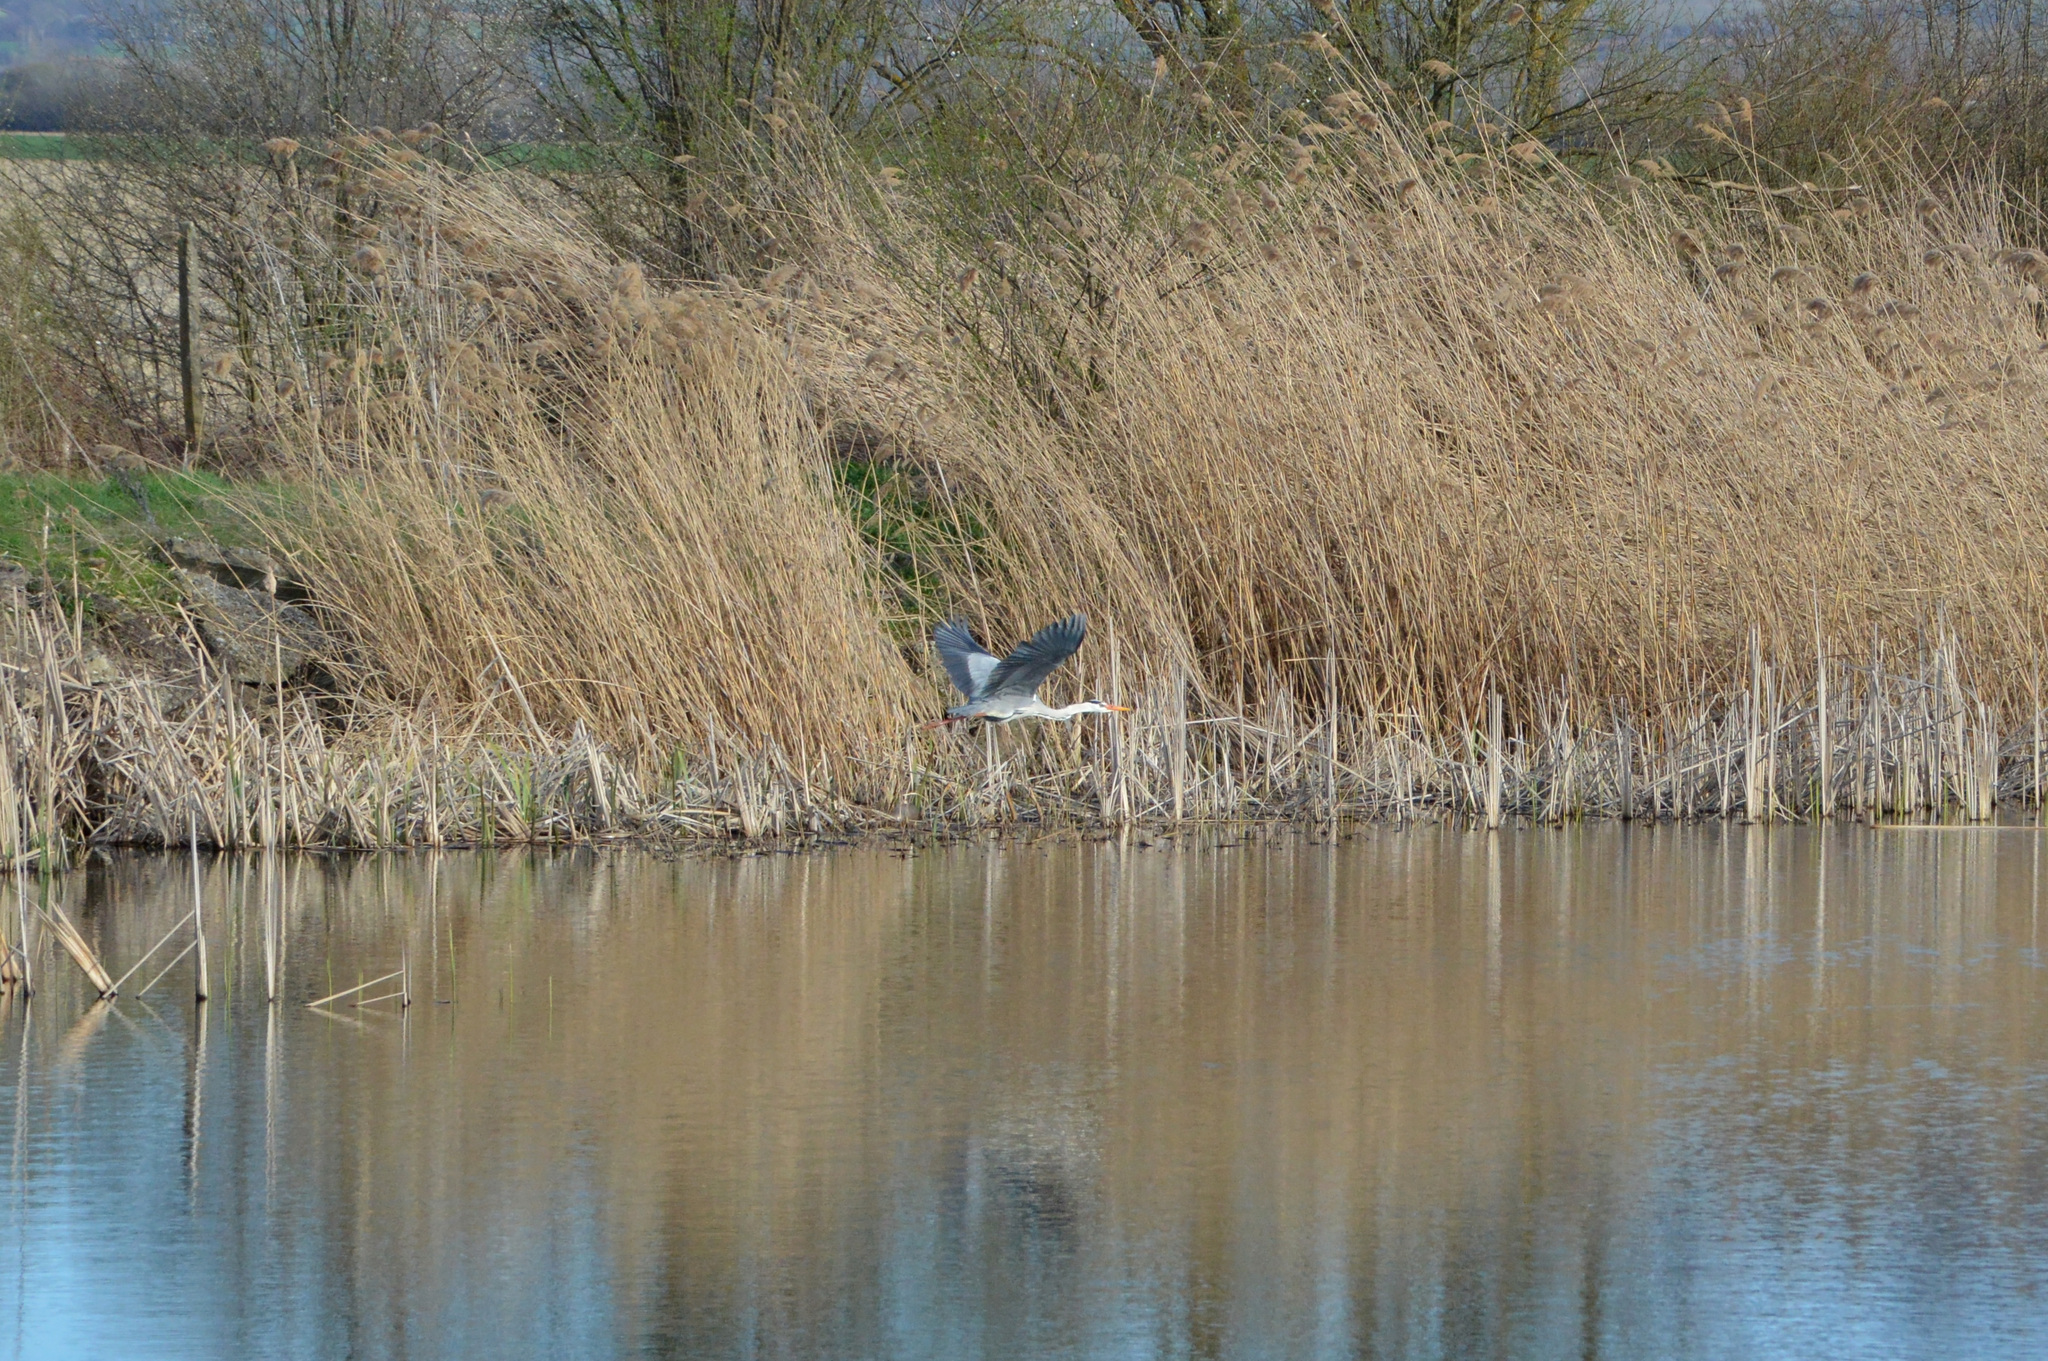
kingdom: Animalia
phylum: Chordata
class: Aves
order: Pelecaniformes
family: Ardeidae
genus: Ardea
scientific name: Ardea cinerea
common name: Grey heron
